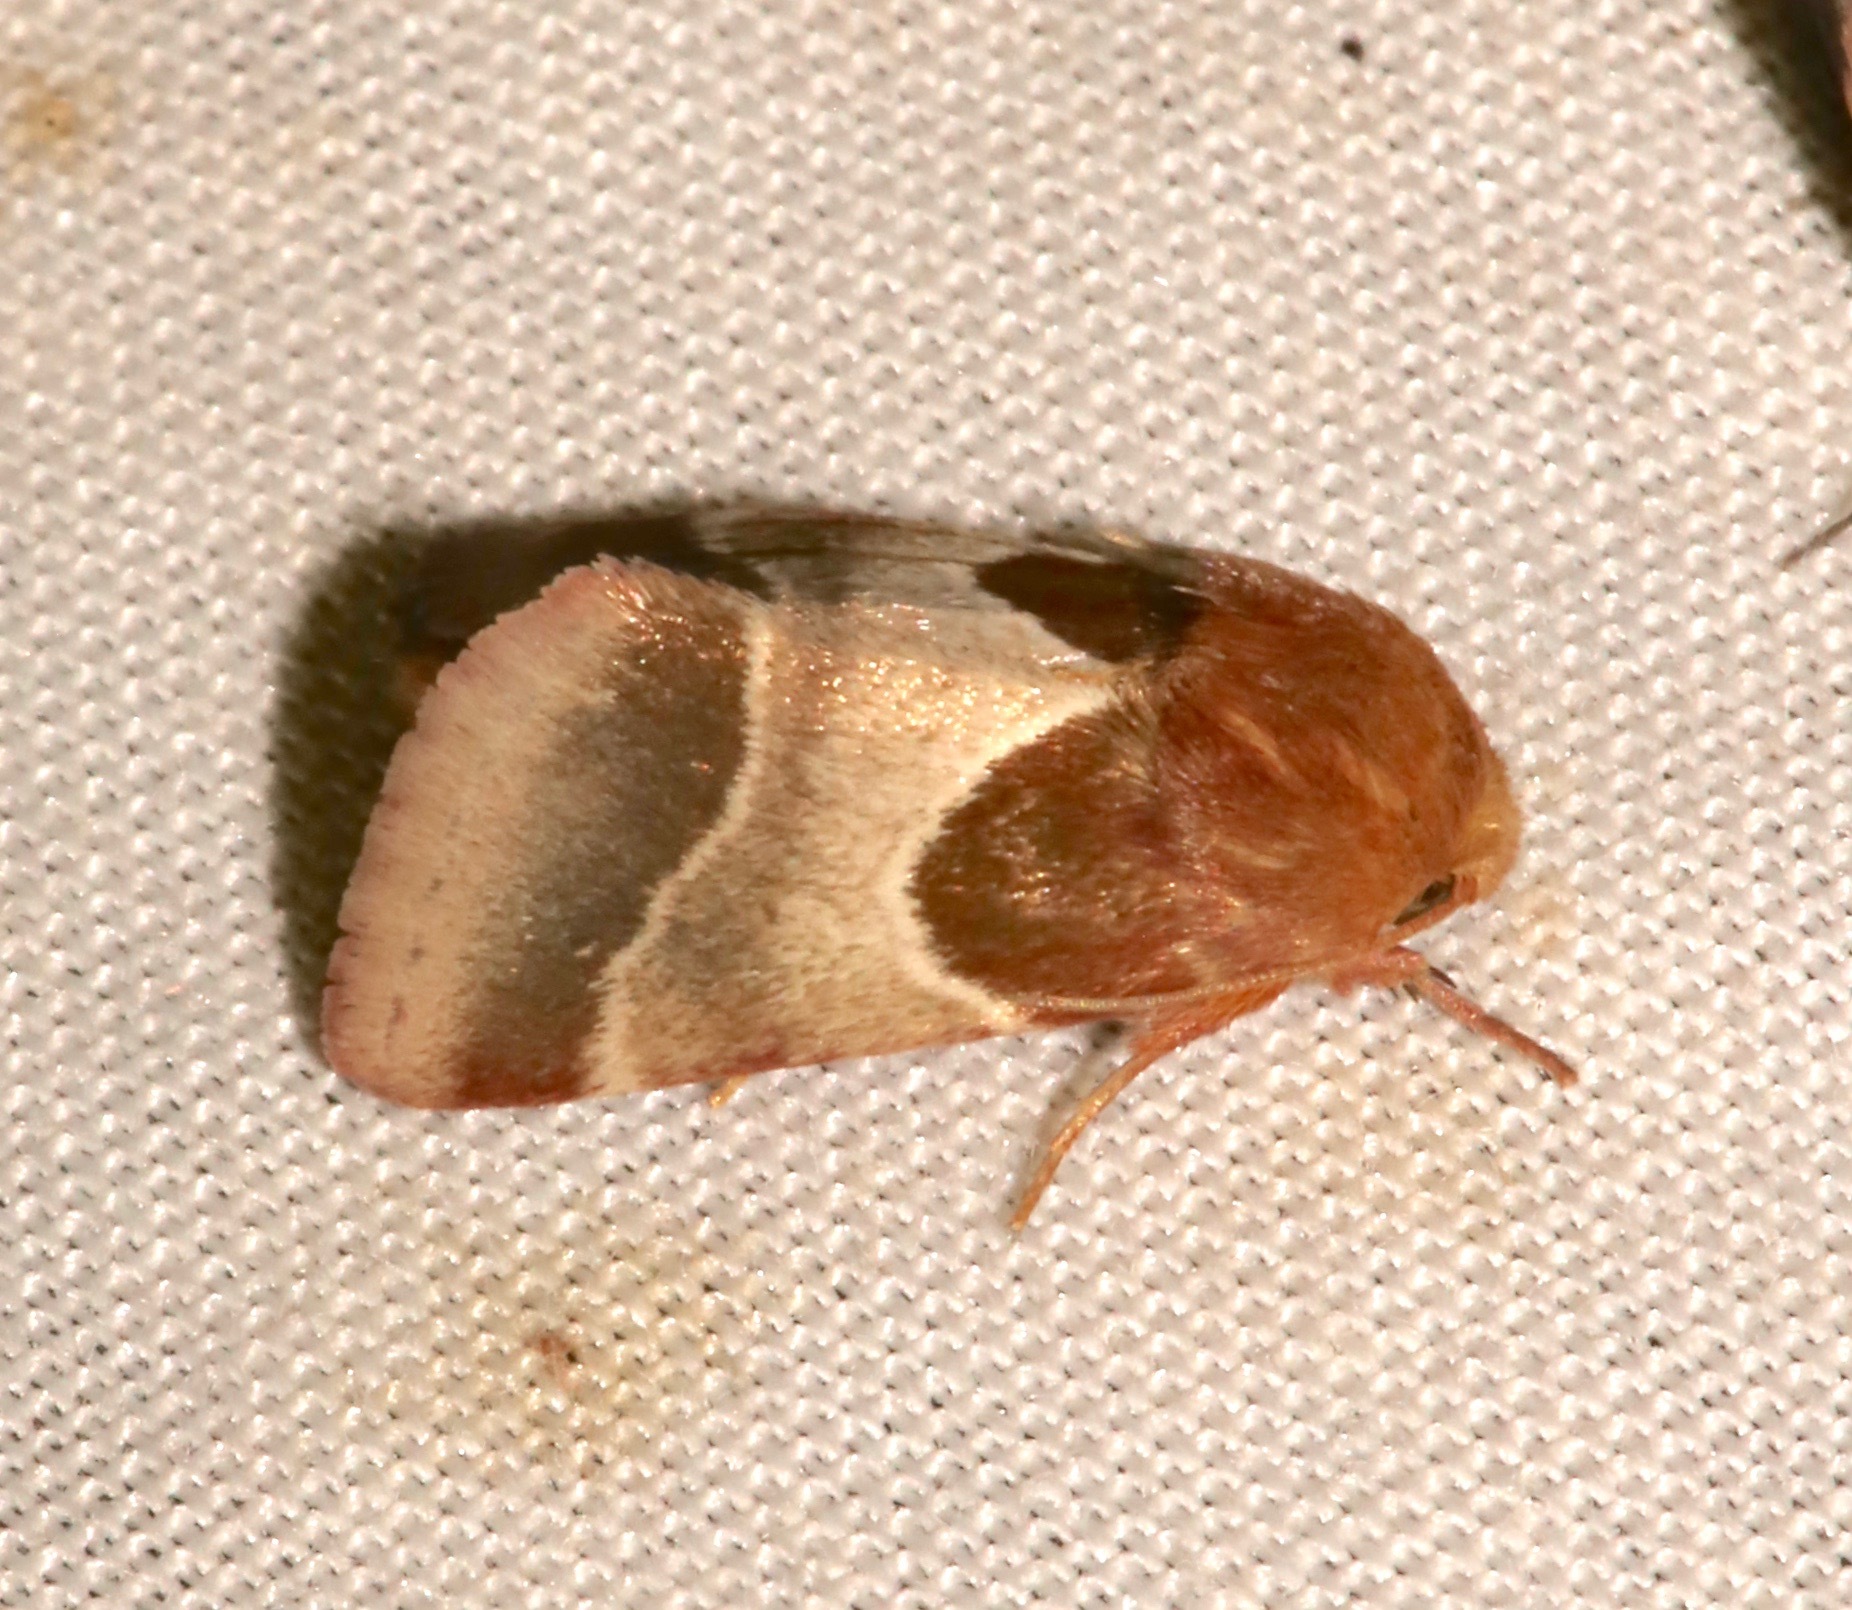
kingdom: Animalia
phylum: Arthropoda
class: Insecta
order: Lepidoptera
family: Noctuidae
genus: Schinia
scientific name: Schinia arcigera
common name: Arcigera flower moth
